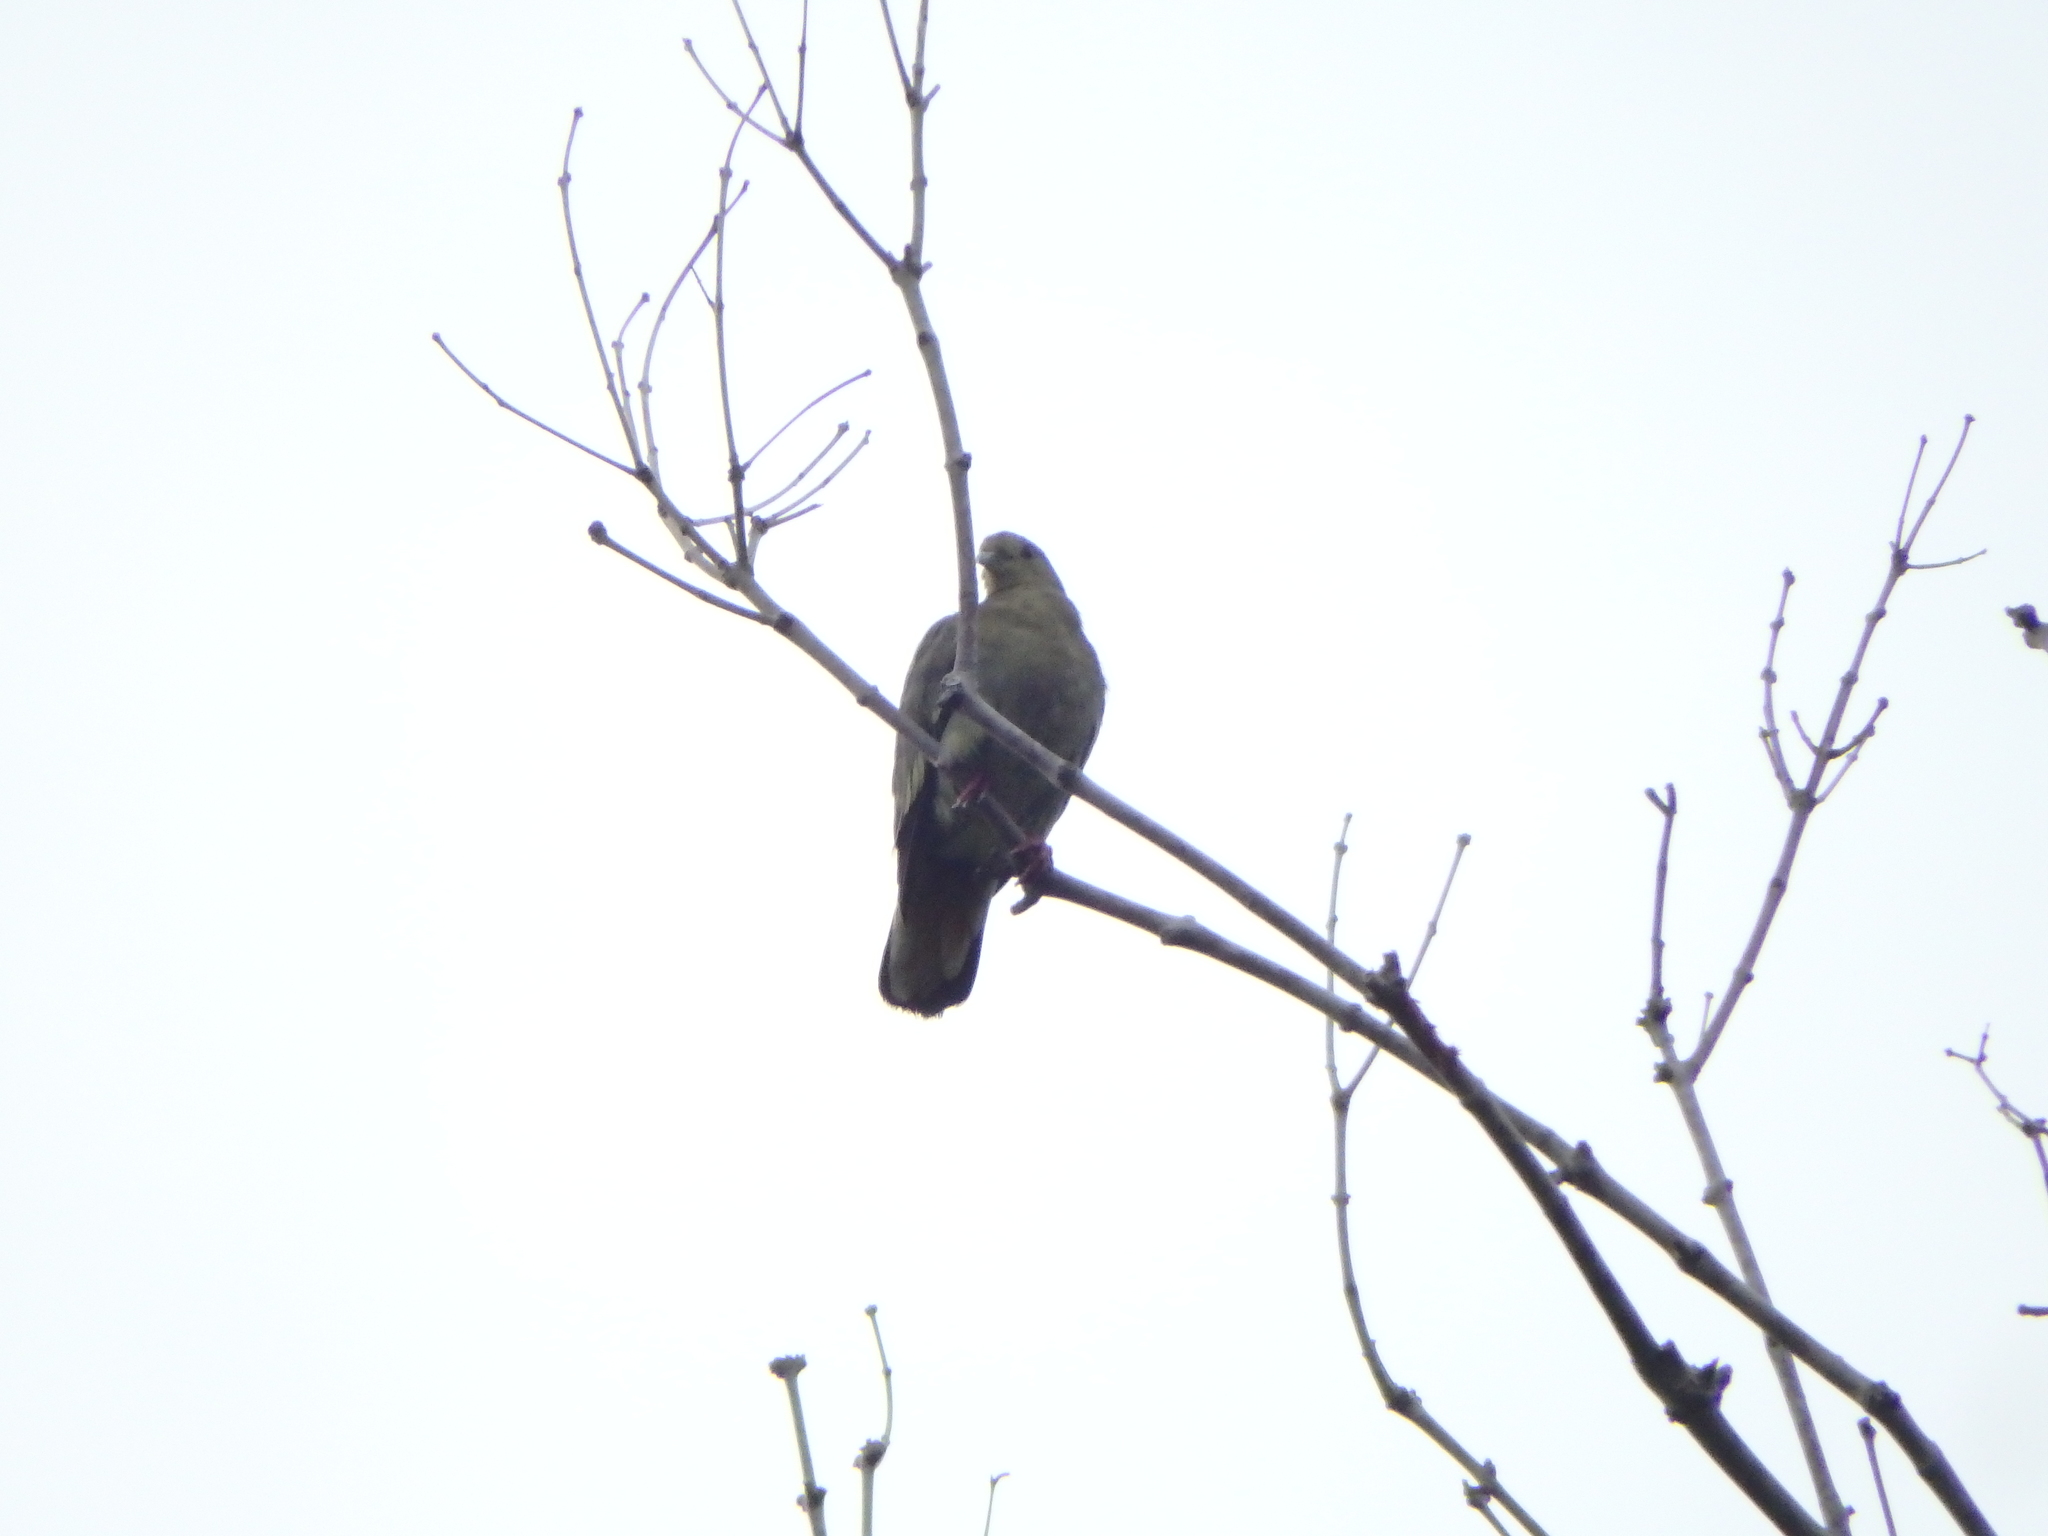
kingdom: Animalia
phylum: Chordata
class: Aves
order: Columbiformes
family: Columbidae
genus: Treron
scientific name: Treron vernans
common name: Pink-necked green pigeon
